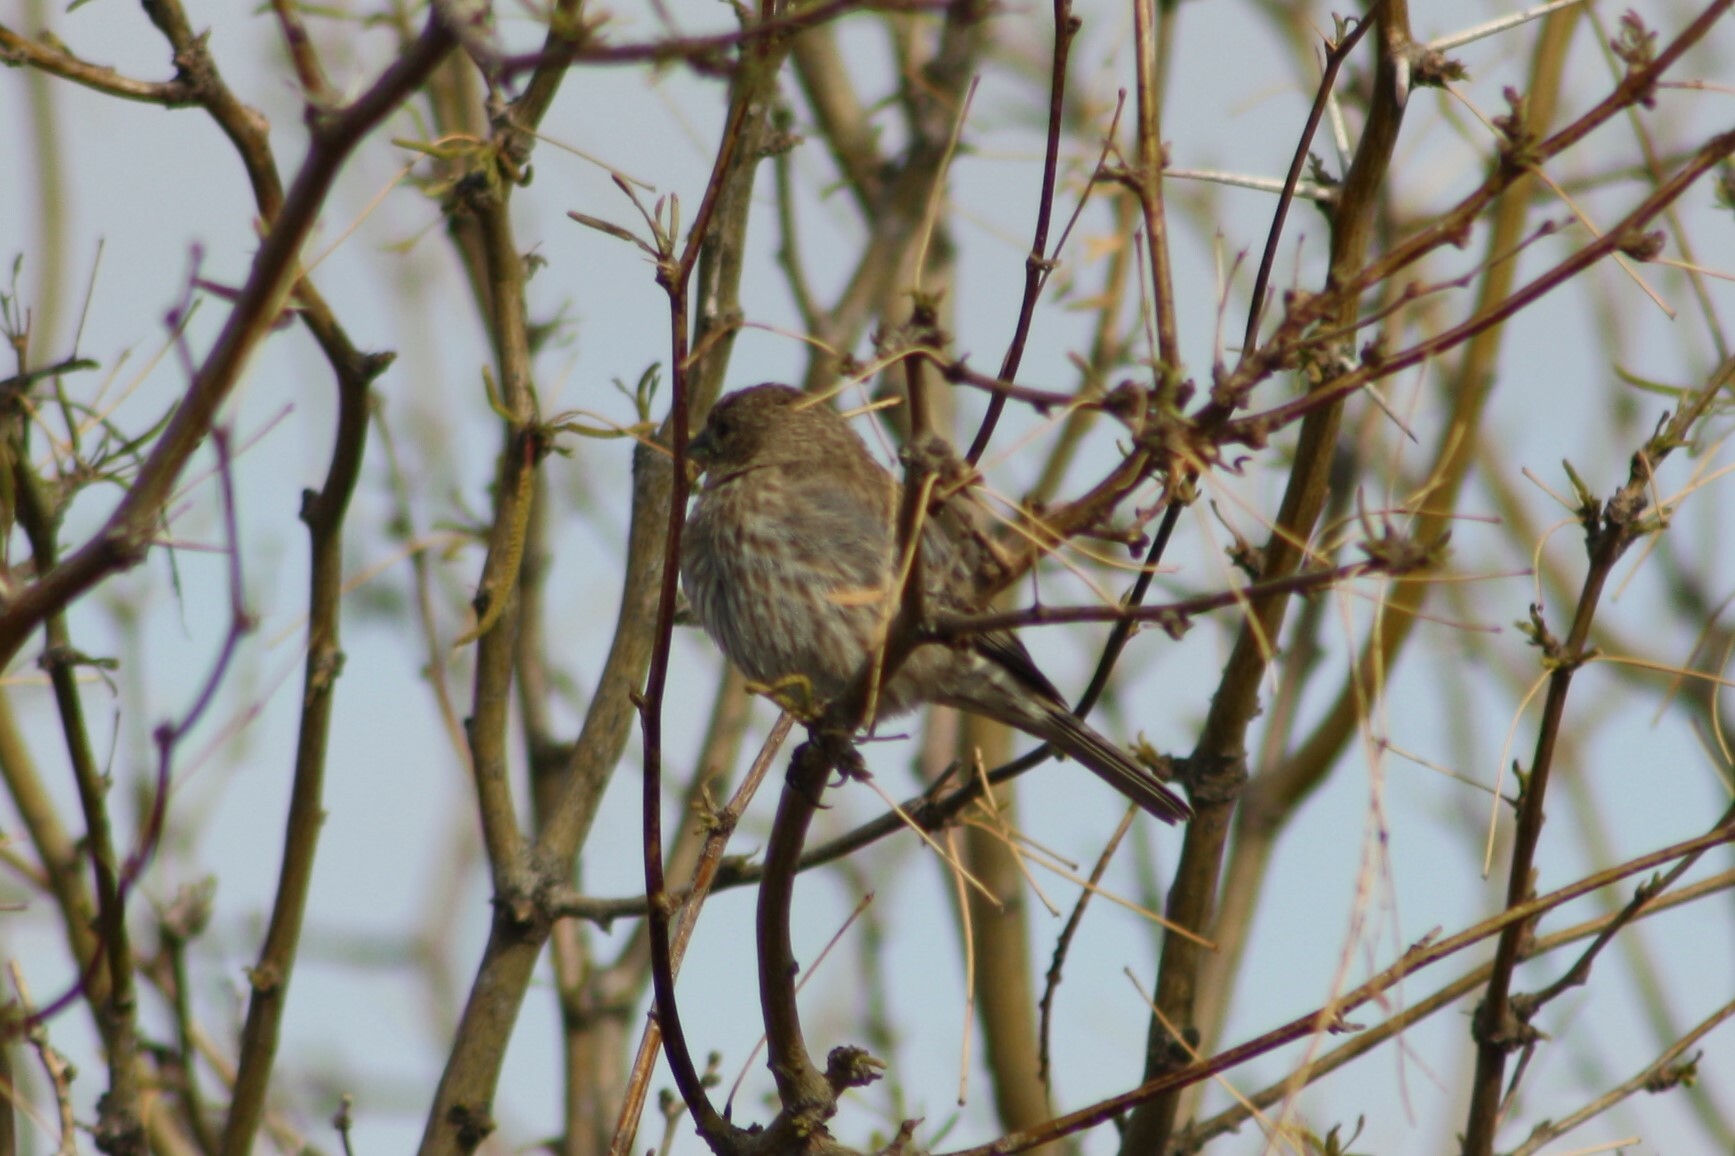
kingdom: Animalia
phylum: Chordata
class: Aves
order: Passeriformes
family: Fringillidae
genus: Haemorhous
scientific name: Haemorhous mexicanus
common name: House finch
